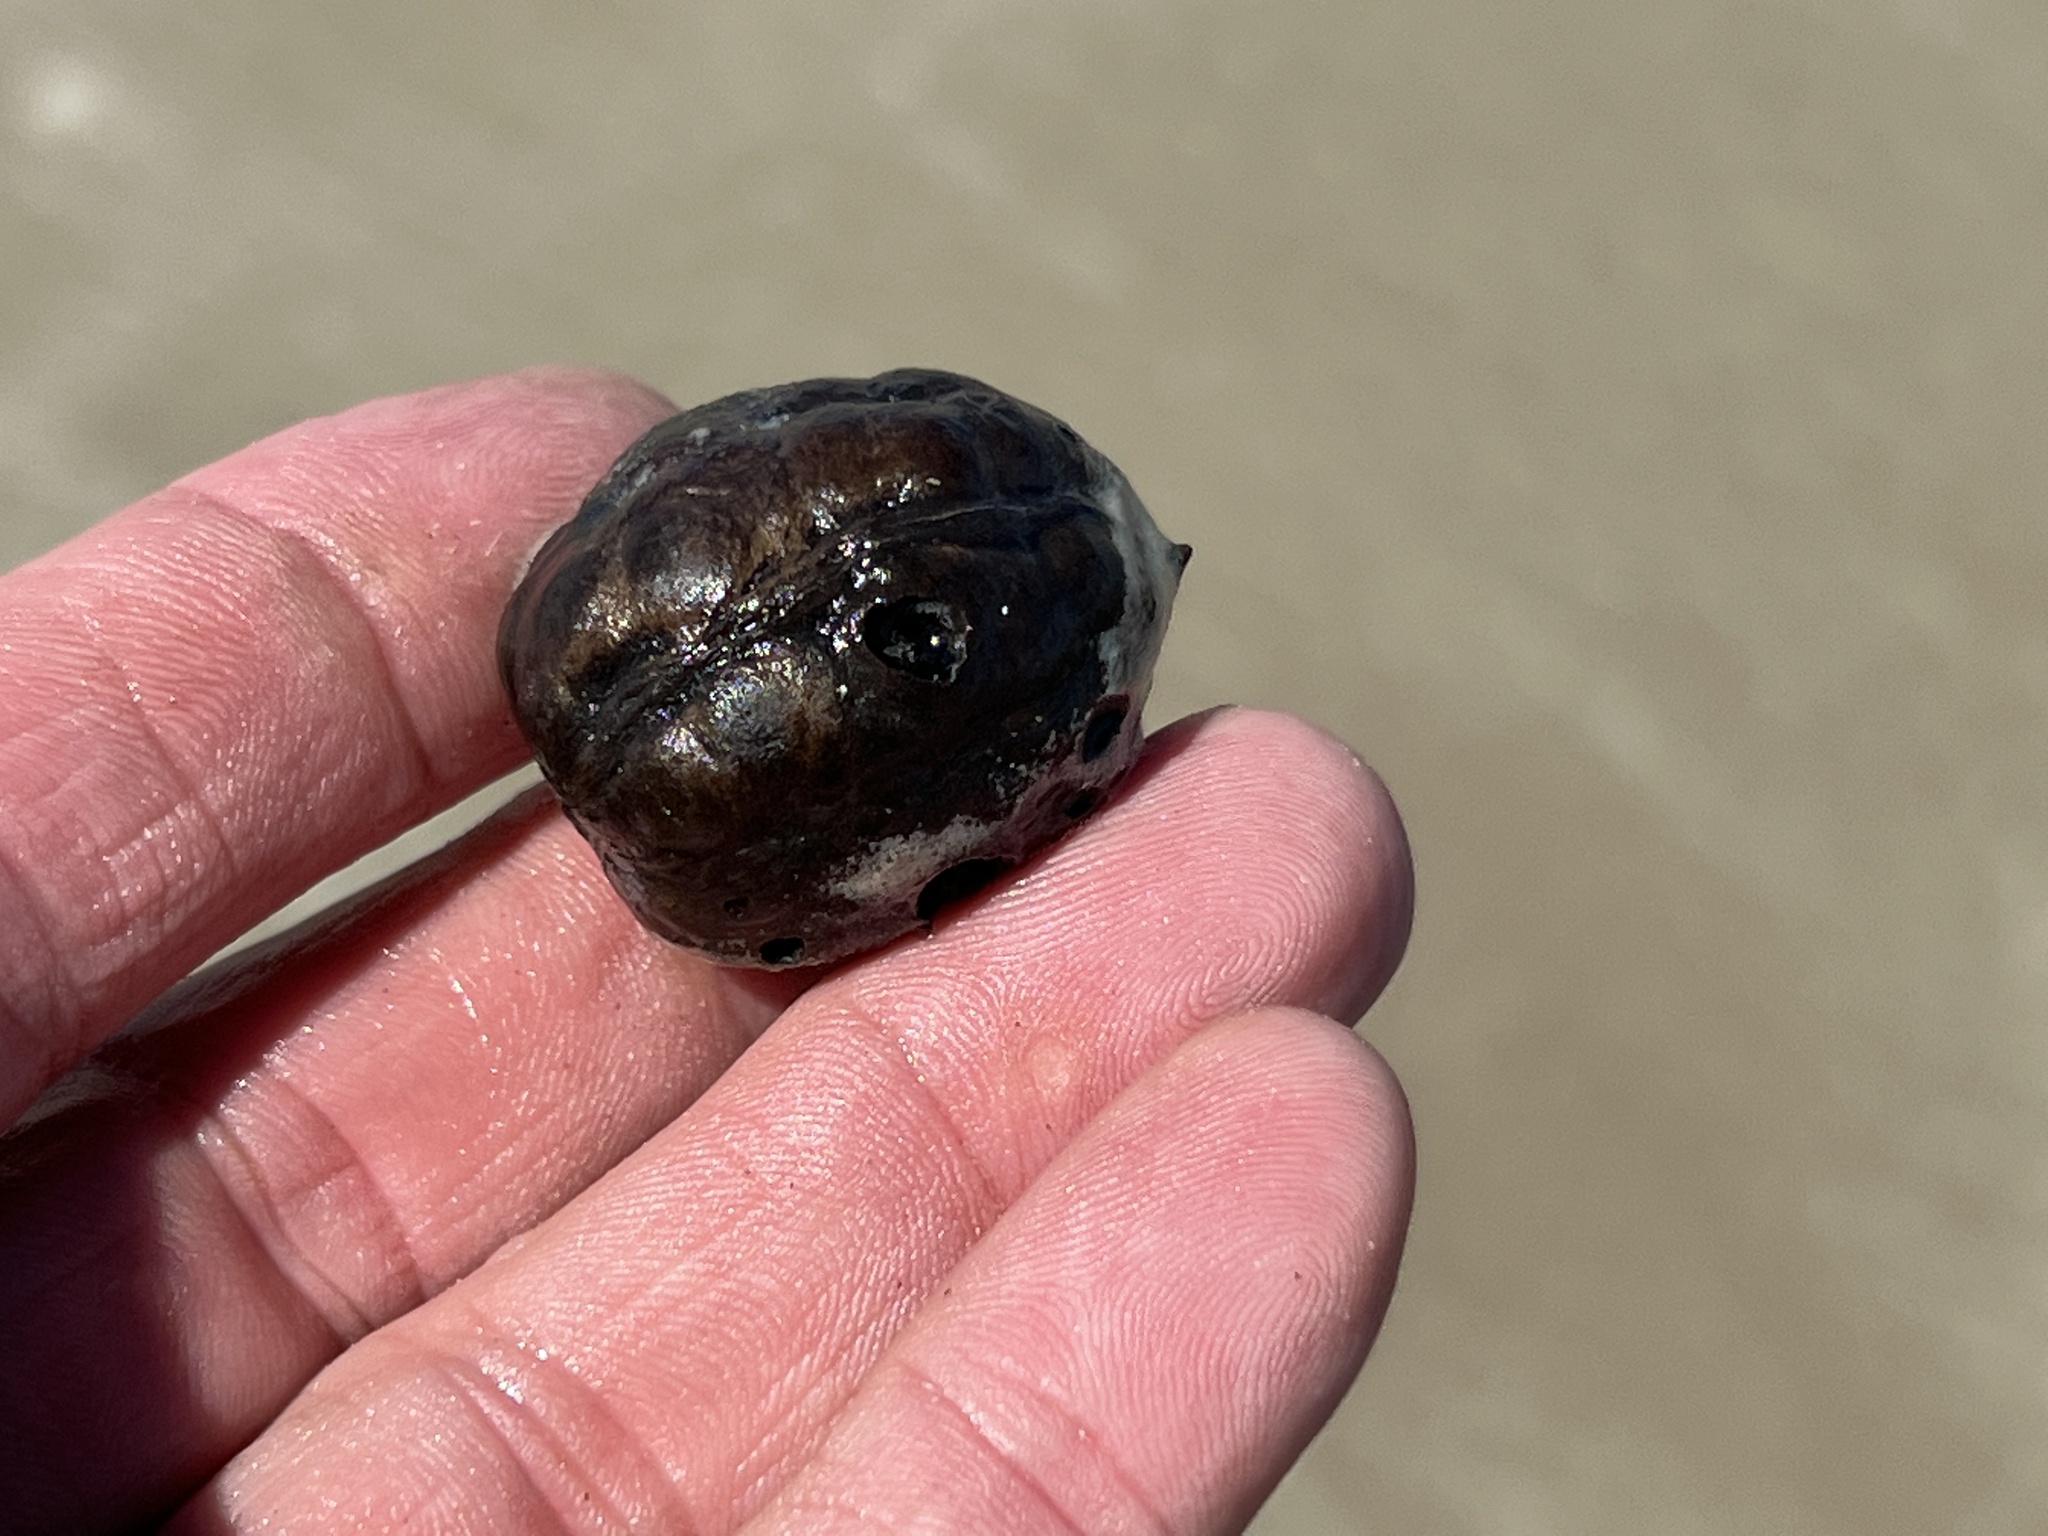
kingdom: Plantae
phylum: Tracheophyta
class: Liliopsida
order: Arecales
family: Arecaceae
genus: Manicaria
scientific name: Manicaria saccifera
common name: Sea coconut
